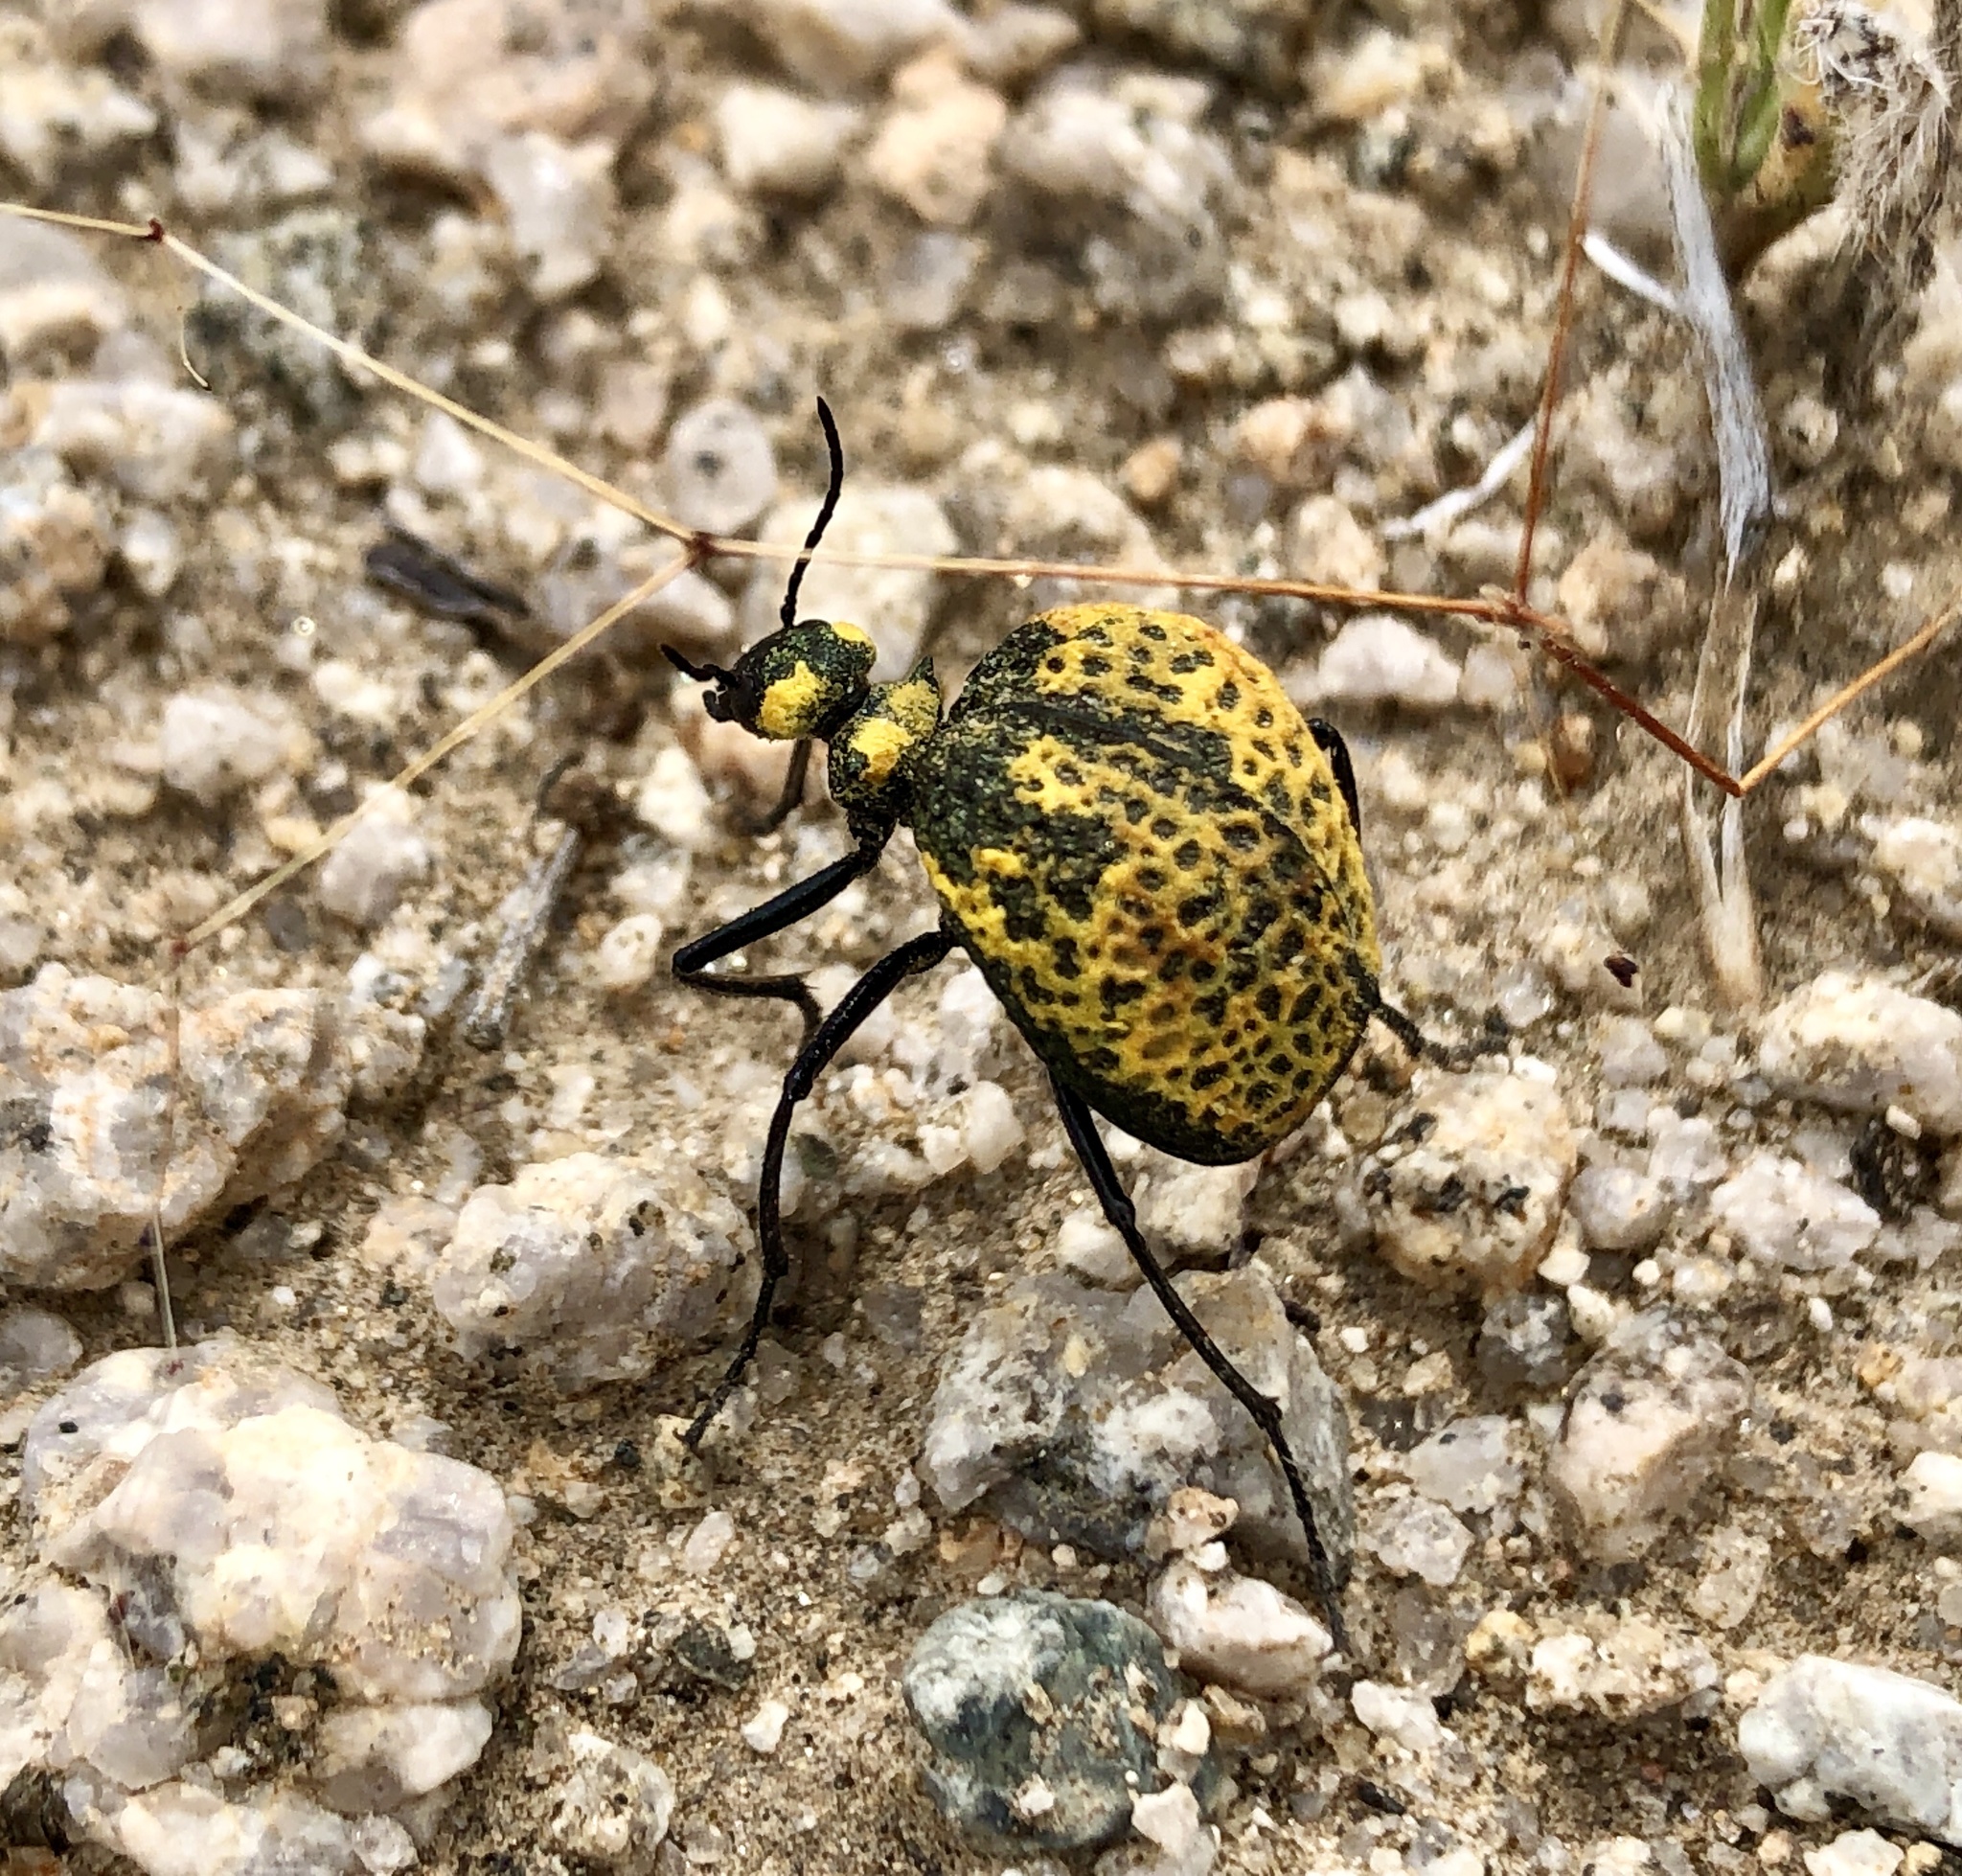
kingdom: Animalia
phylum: Arthropoda
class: Insecta
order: Coleoptera
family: Meloidae
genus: Cysteodemus
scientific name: Cysteodemus armatus
